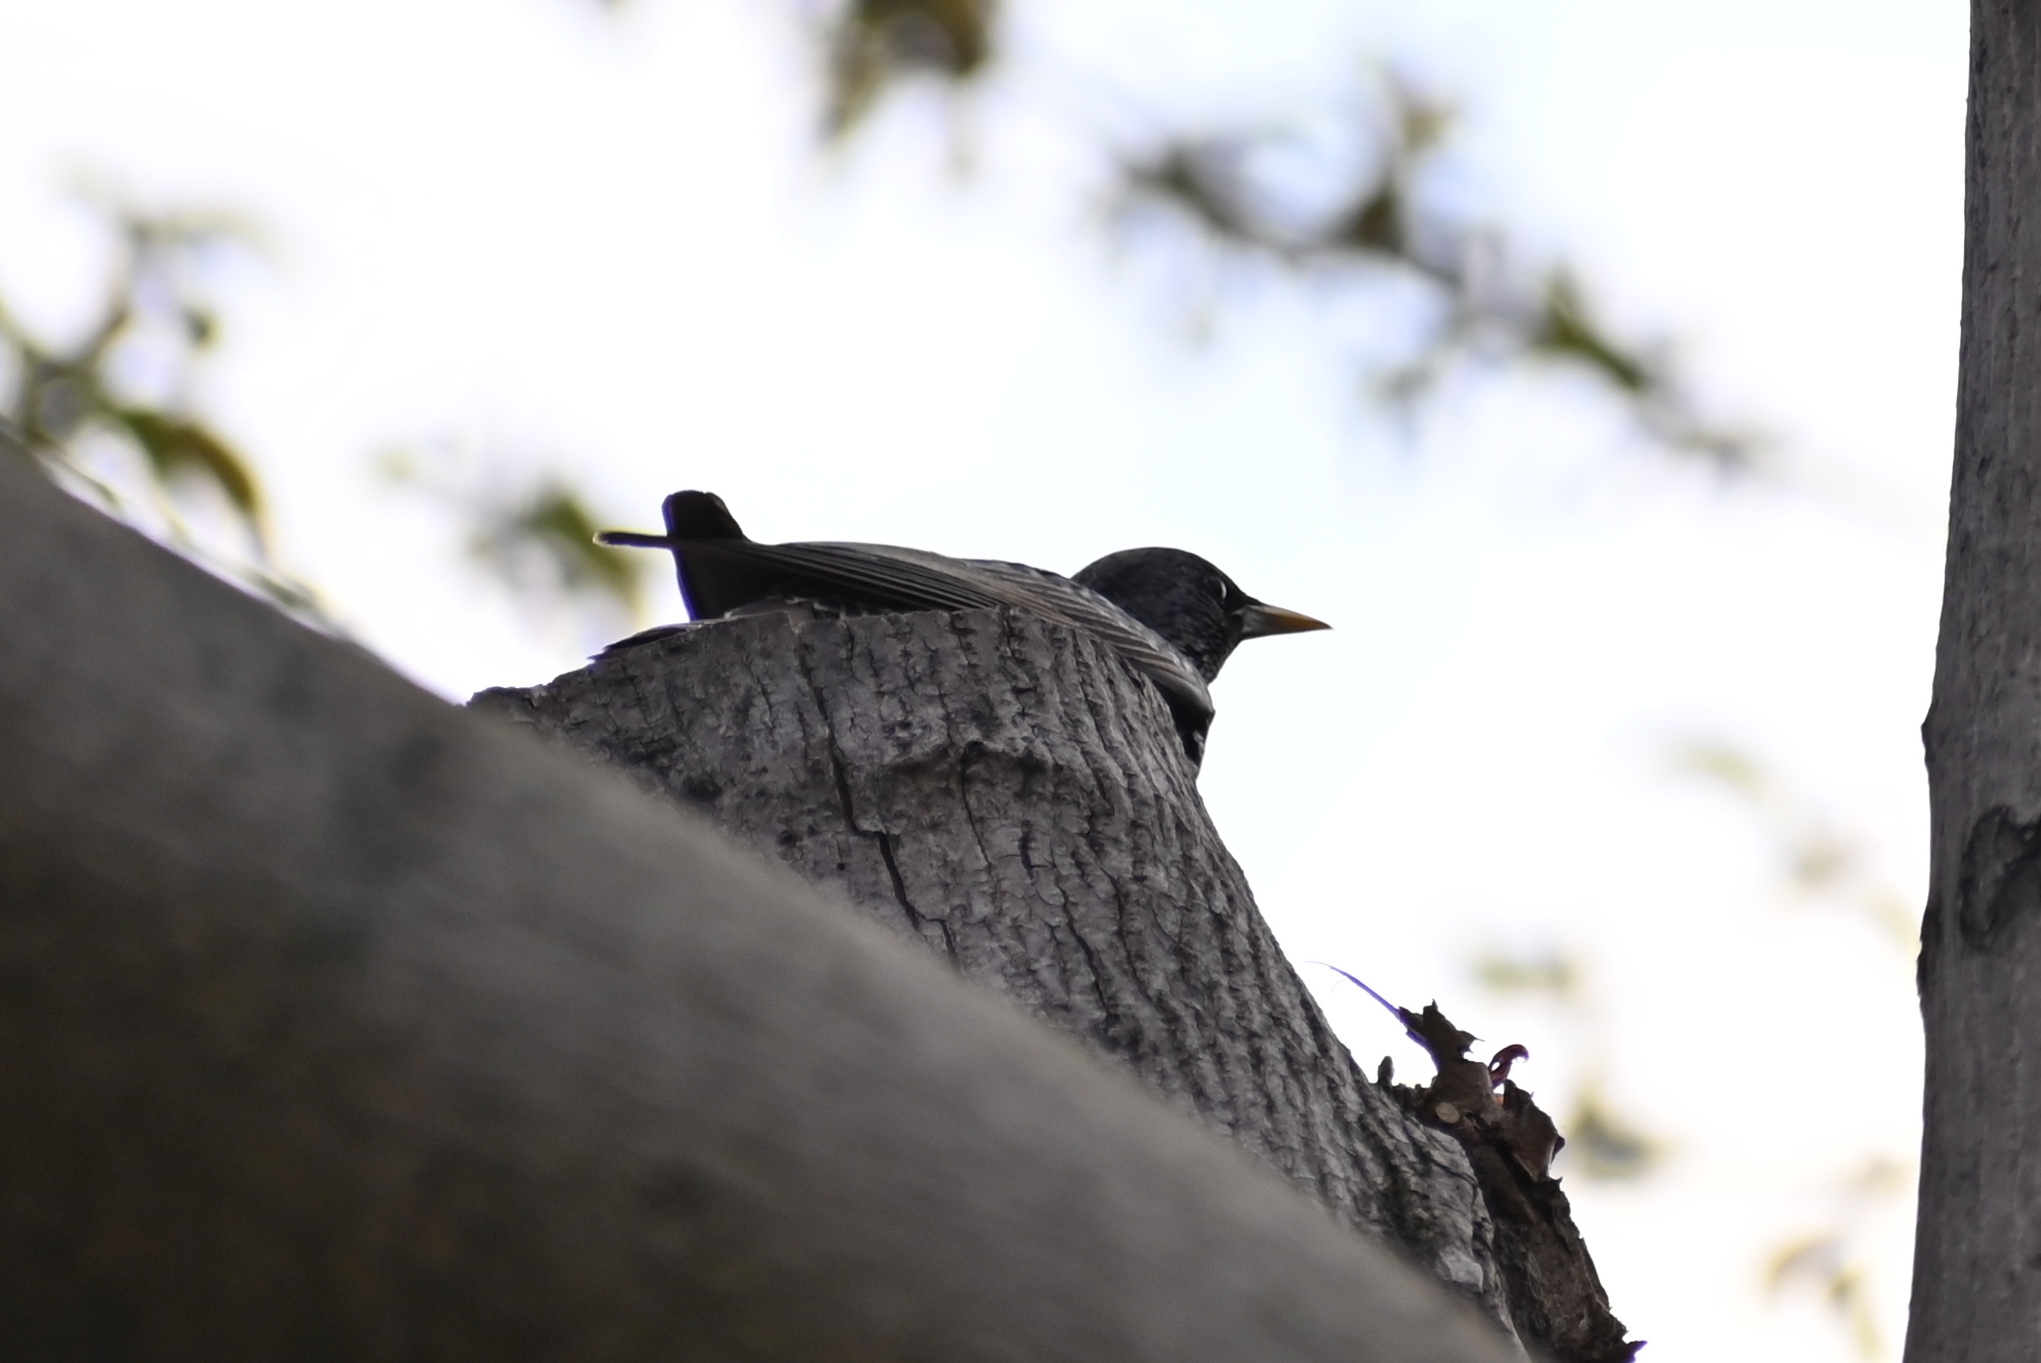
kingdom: Animalia
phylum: Chordata
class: Aves
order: Passeriformes
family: Sturnidae
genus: Sturnus
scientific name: Sturnus vulgaris
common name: Common starling
